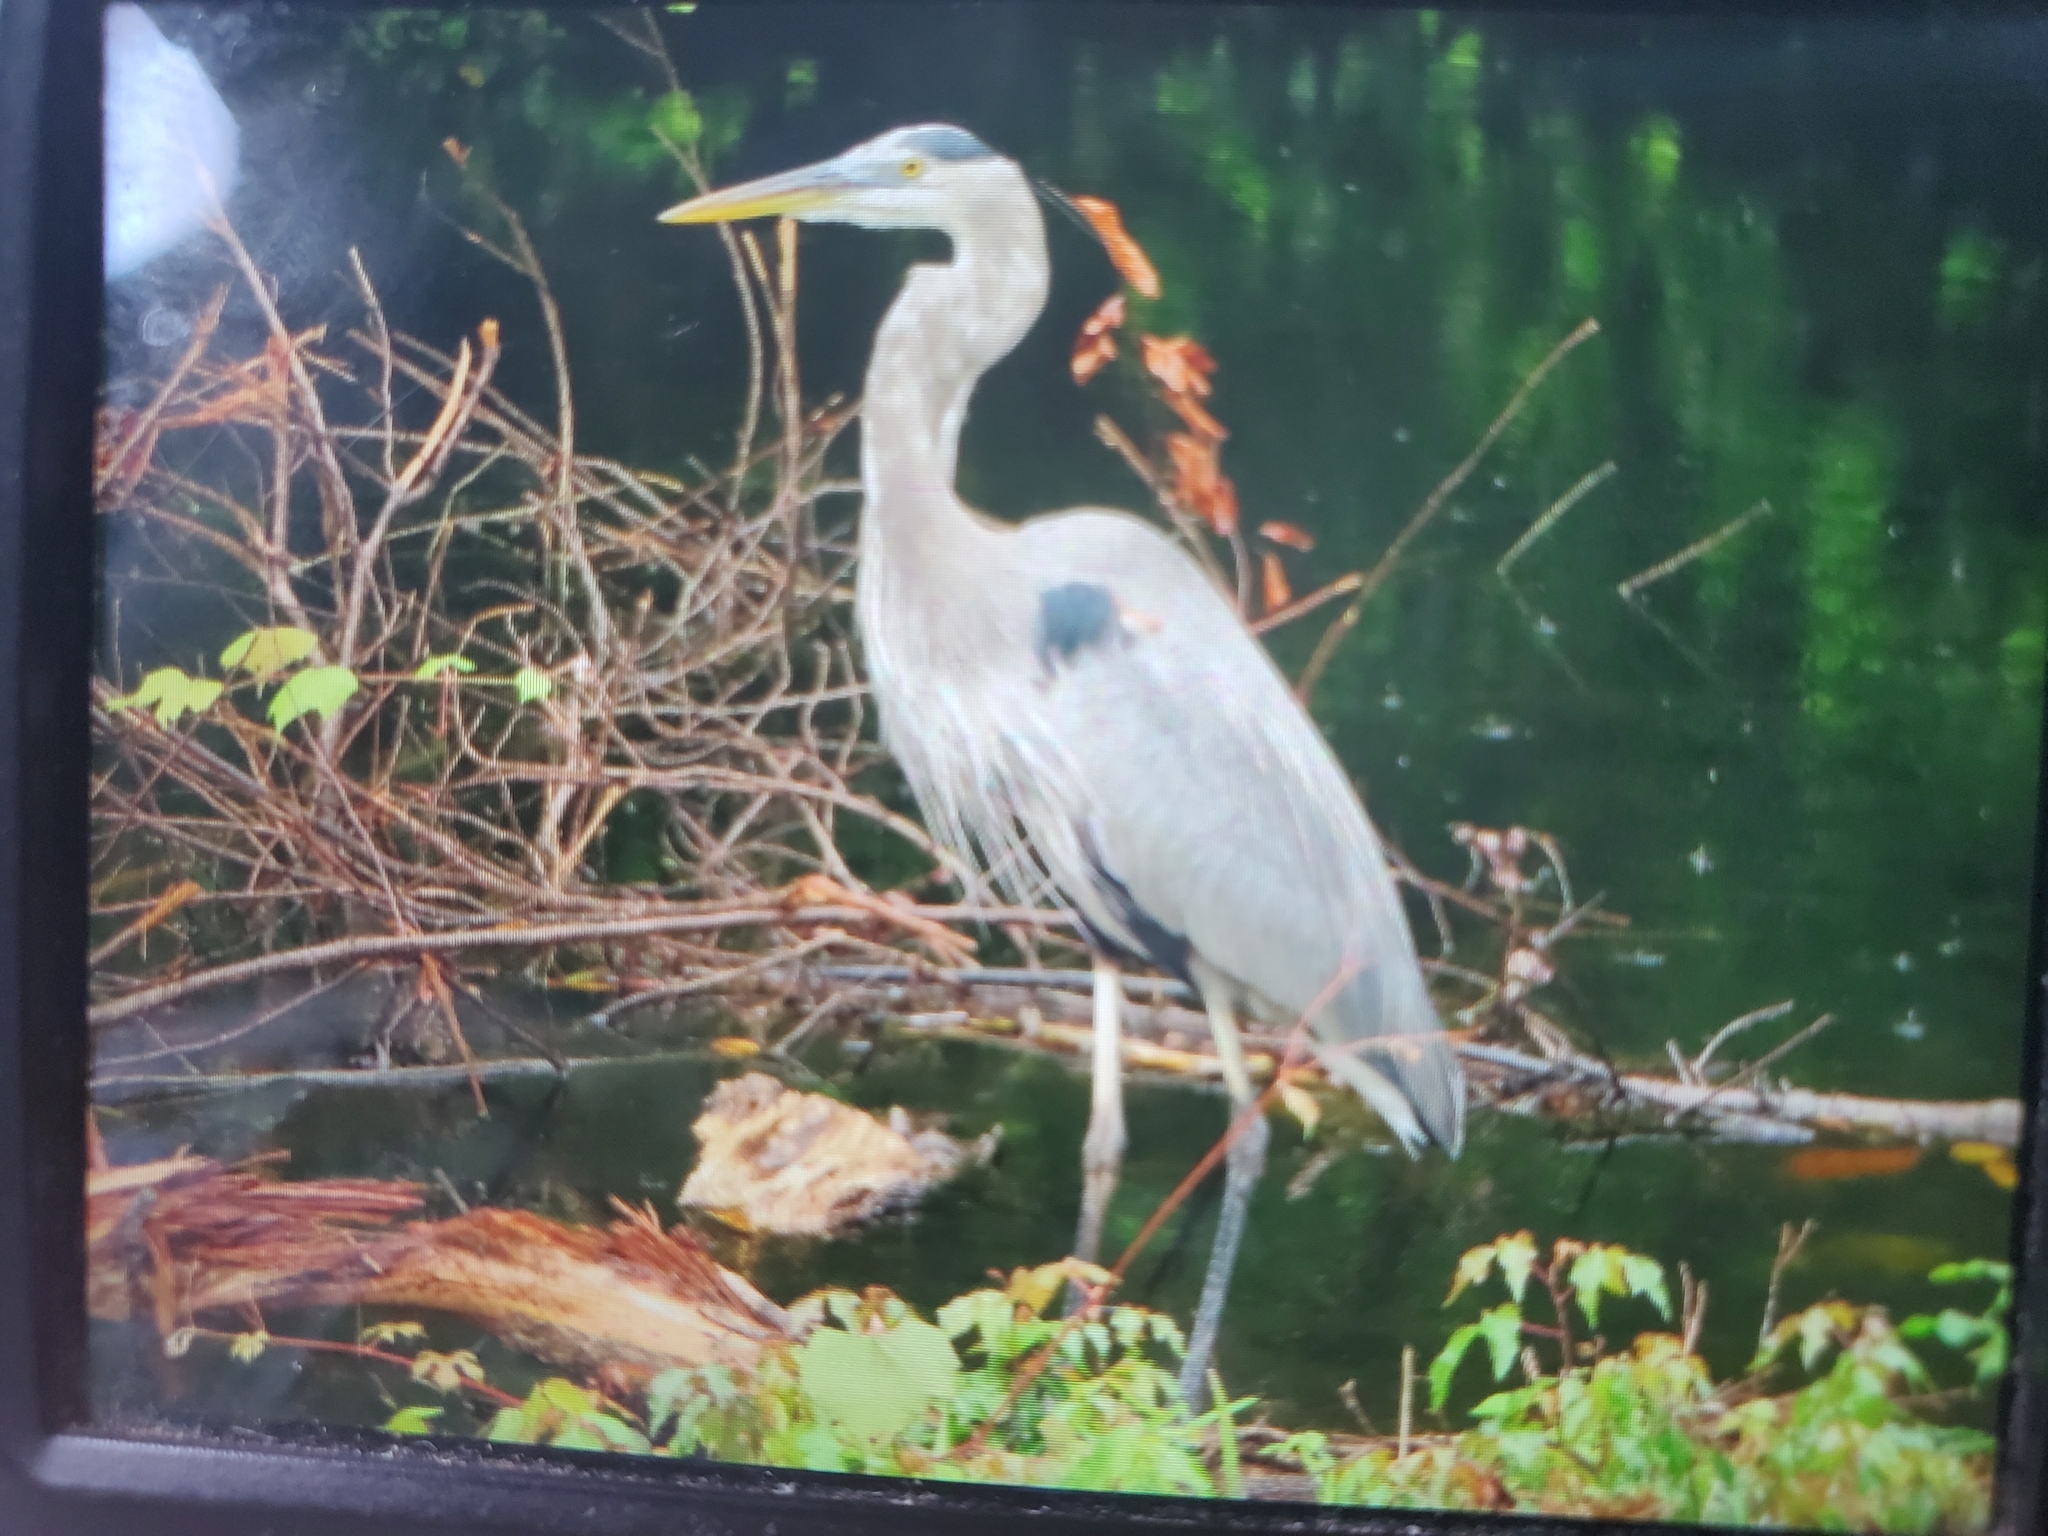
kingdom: Animalia
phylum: Chordata
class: Aves
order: Pelecaniformes
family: Ardeidae
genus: Ardea
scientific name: Ardea herodias
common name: Great blue heron
